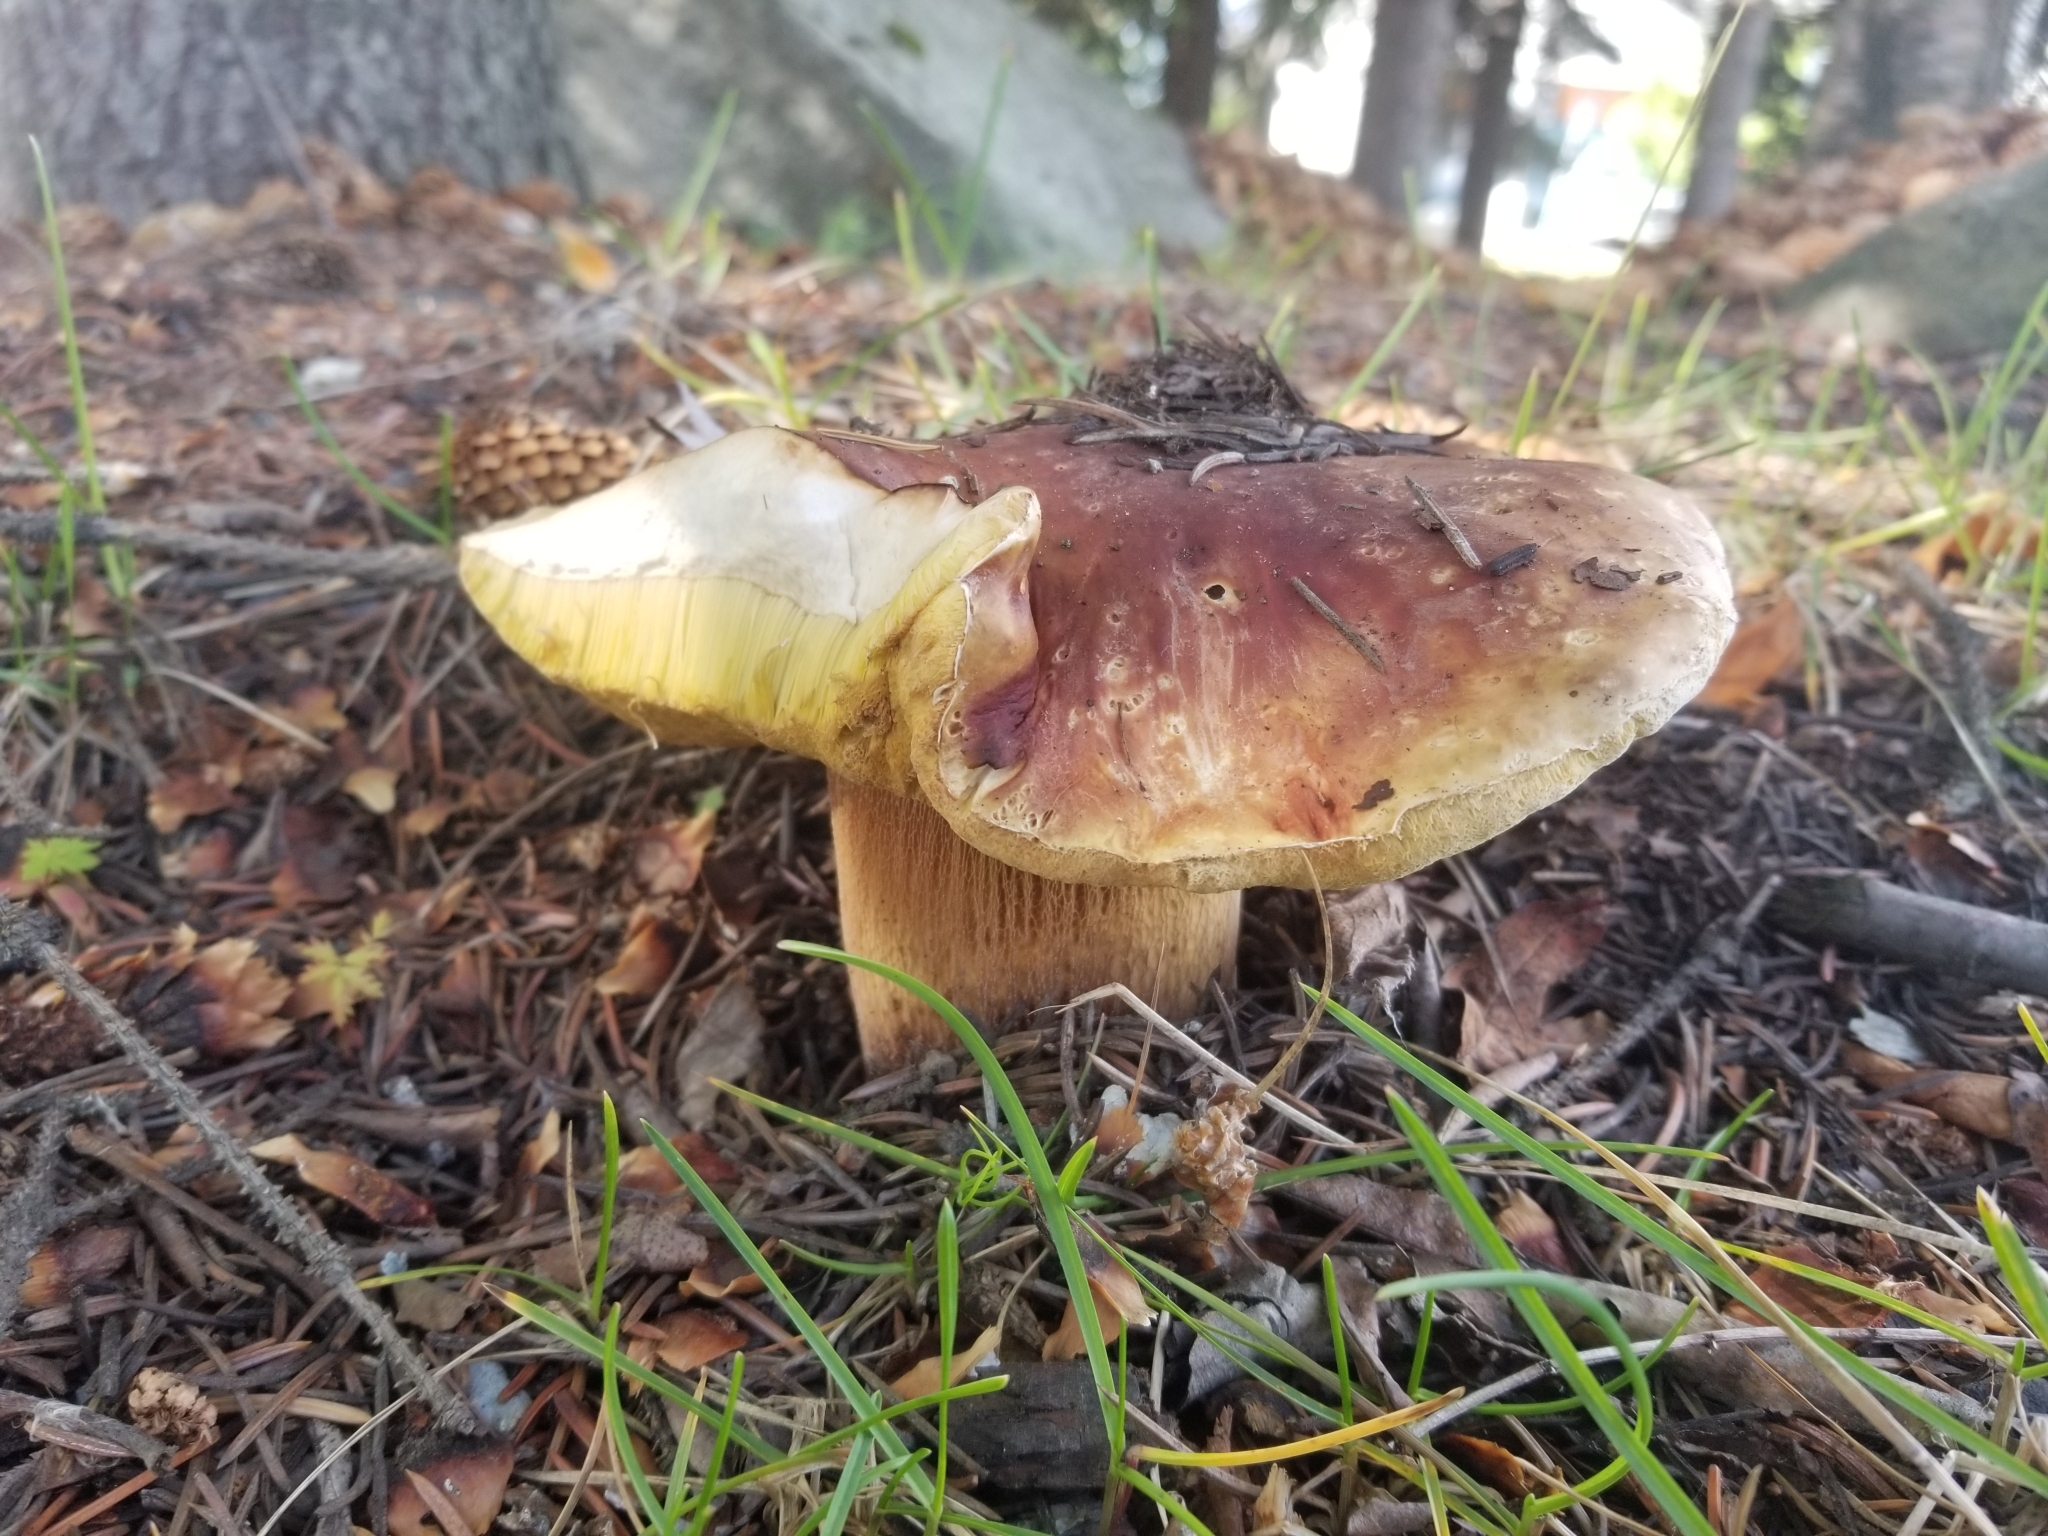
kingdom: Fungi
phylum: Basidiomycota
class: Agaricomycetes
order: Boletales
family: Boletaceae
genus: Boletus
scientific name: Boletus edulis
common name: Cep
